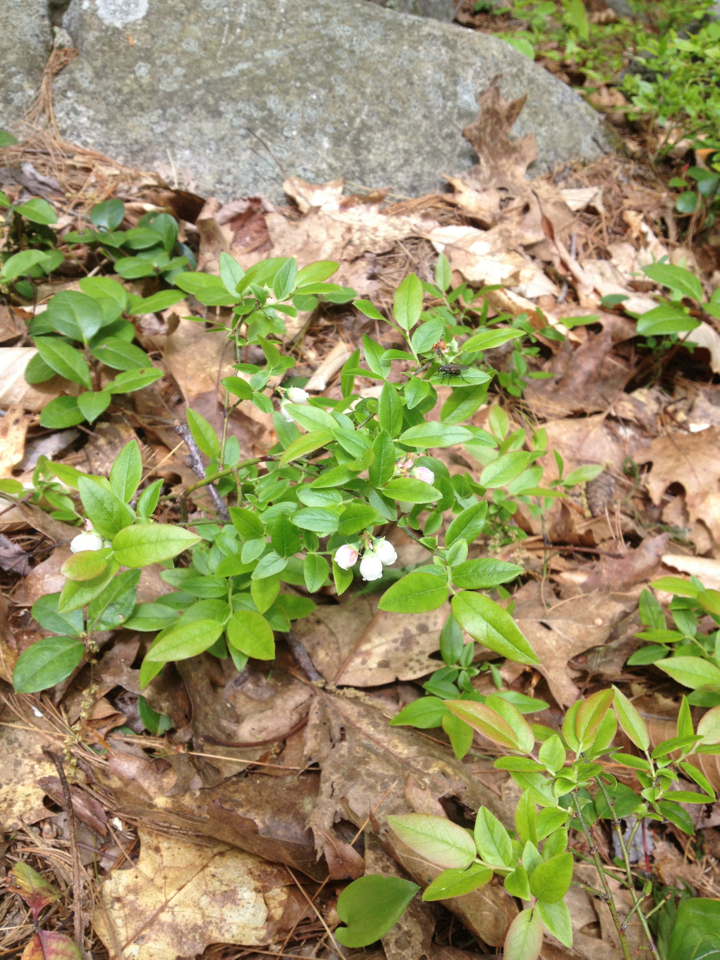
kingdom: Plantae
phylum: Tracheophyta
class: Magnoliopsida
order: Ericales
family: Ericaceae
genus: Vaccinium
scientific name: Vaccinium angustifolium
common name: Early lowbush blueberry
